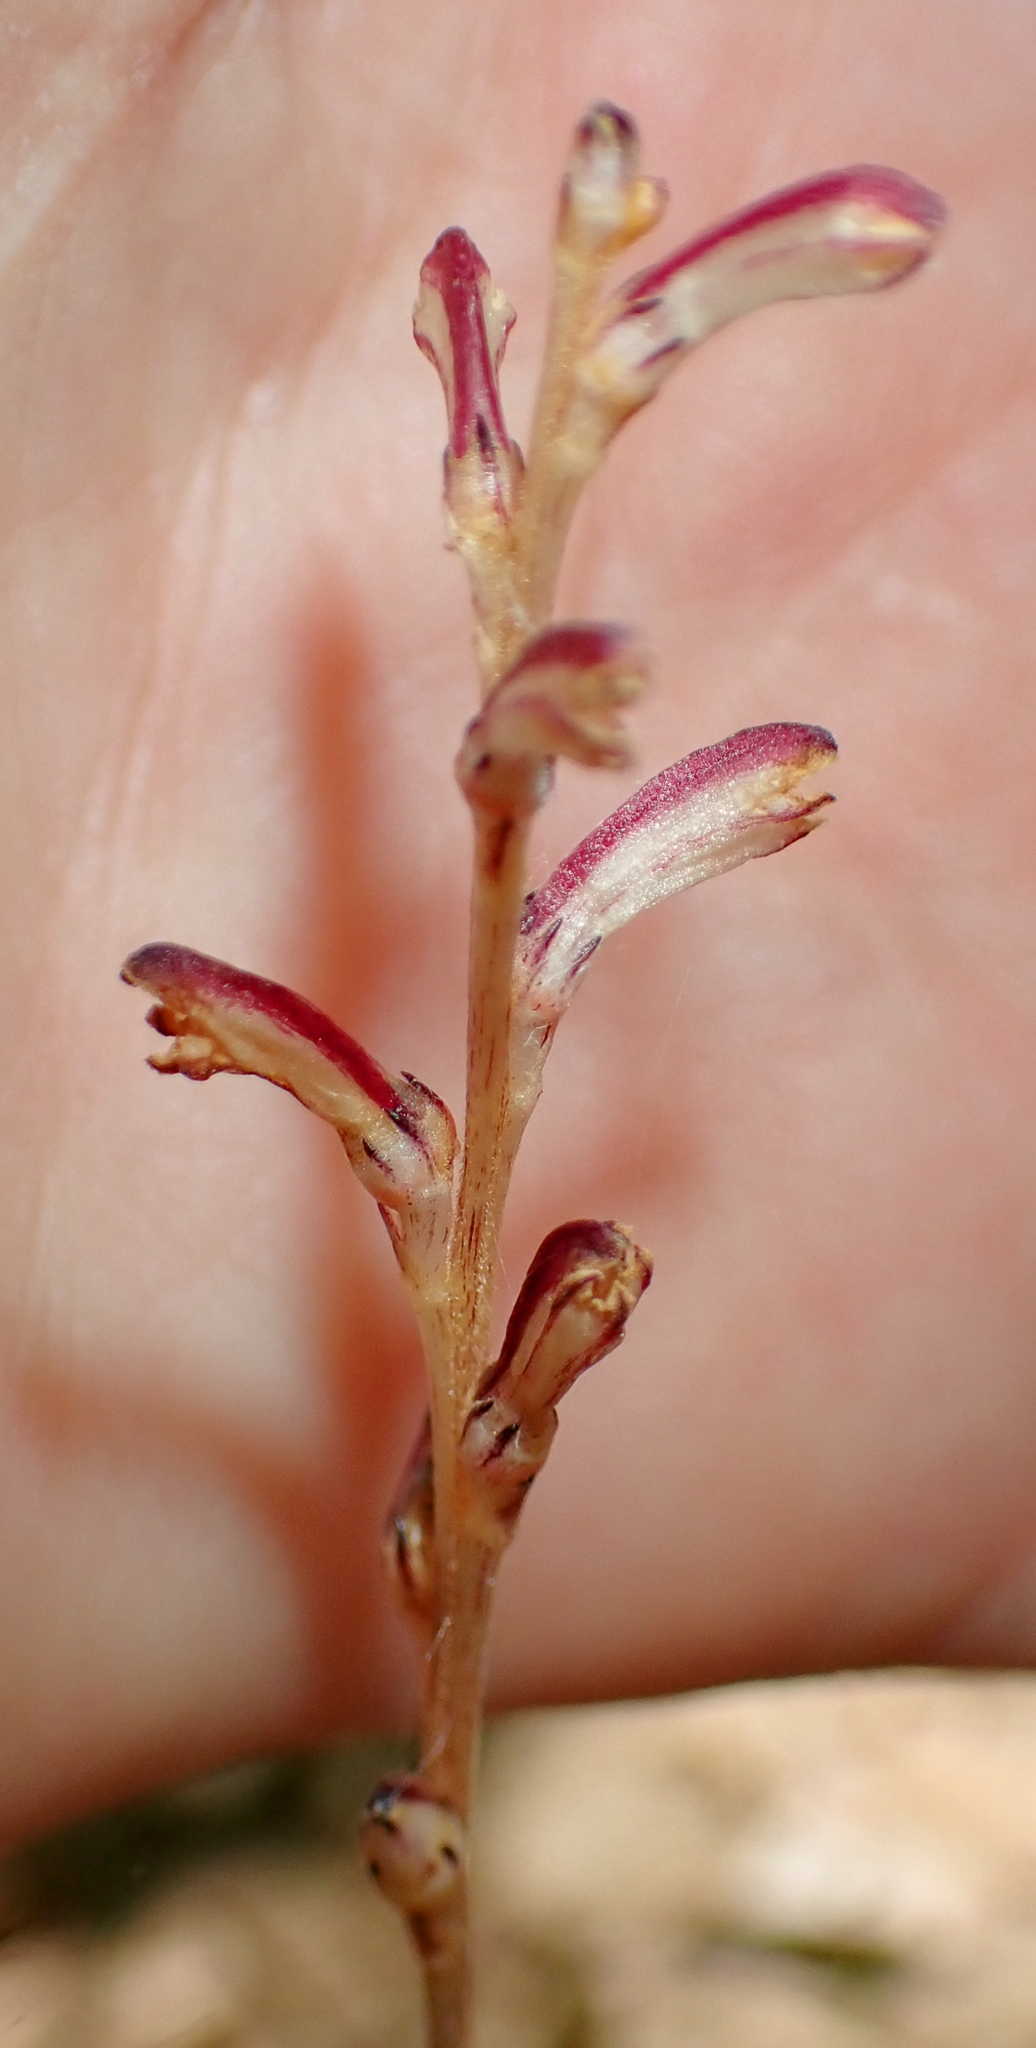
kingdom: Plantae
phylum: Tracheophyta
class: Magnoliopsida
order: Lamiales
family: Orobanchaceae
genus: Epifagus
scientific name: Epifagus virginiana
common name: Beechdrops
